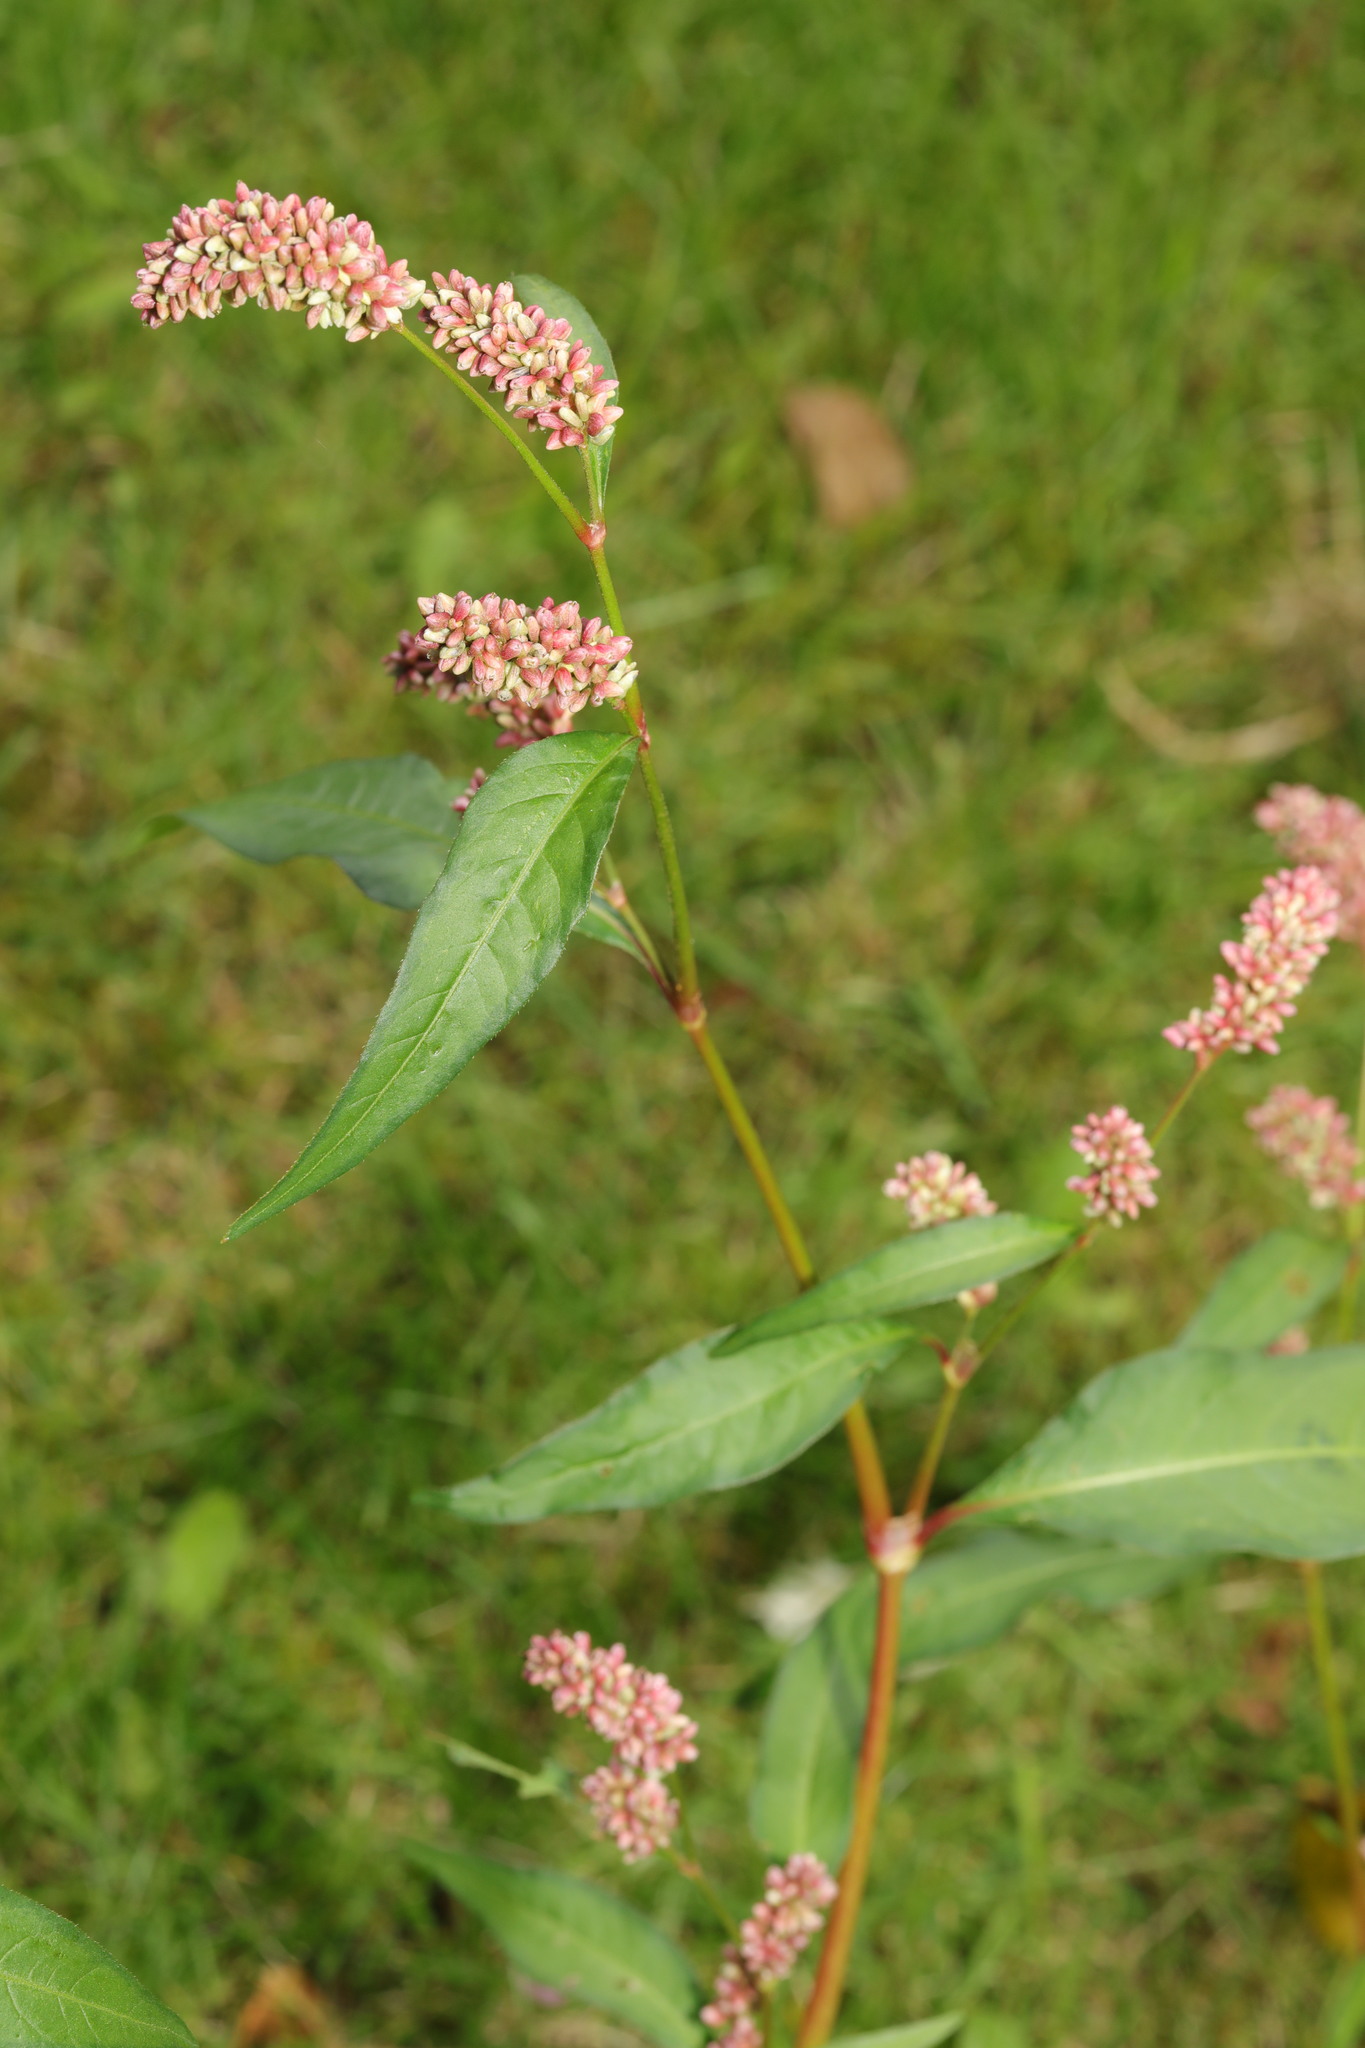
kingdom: Plantae
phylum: Tracheophyta
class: Magnoliopsida
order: Caryophyllales
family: Polygonaceae
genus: Persicaria
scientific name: Persicaria maculosa
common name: Redshank
